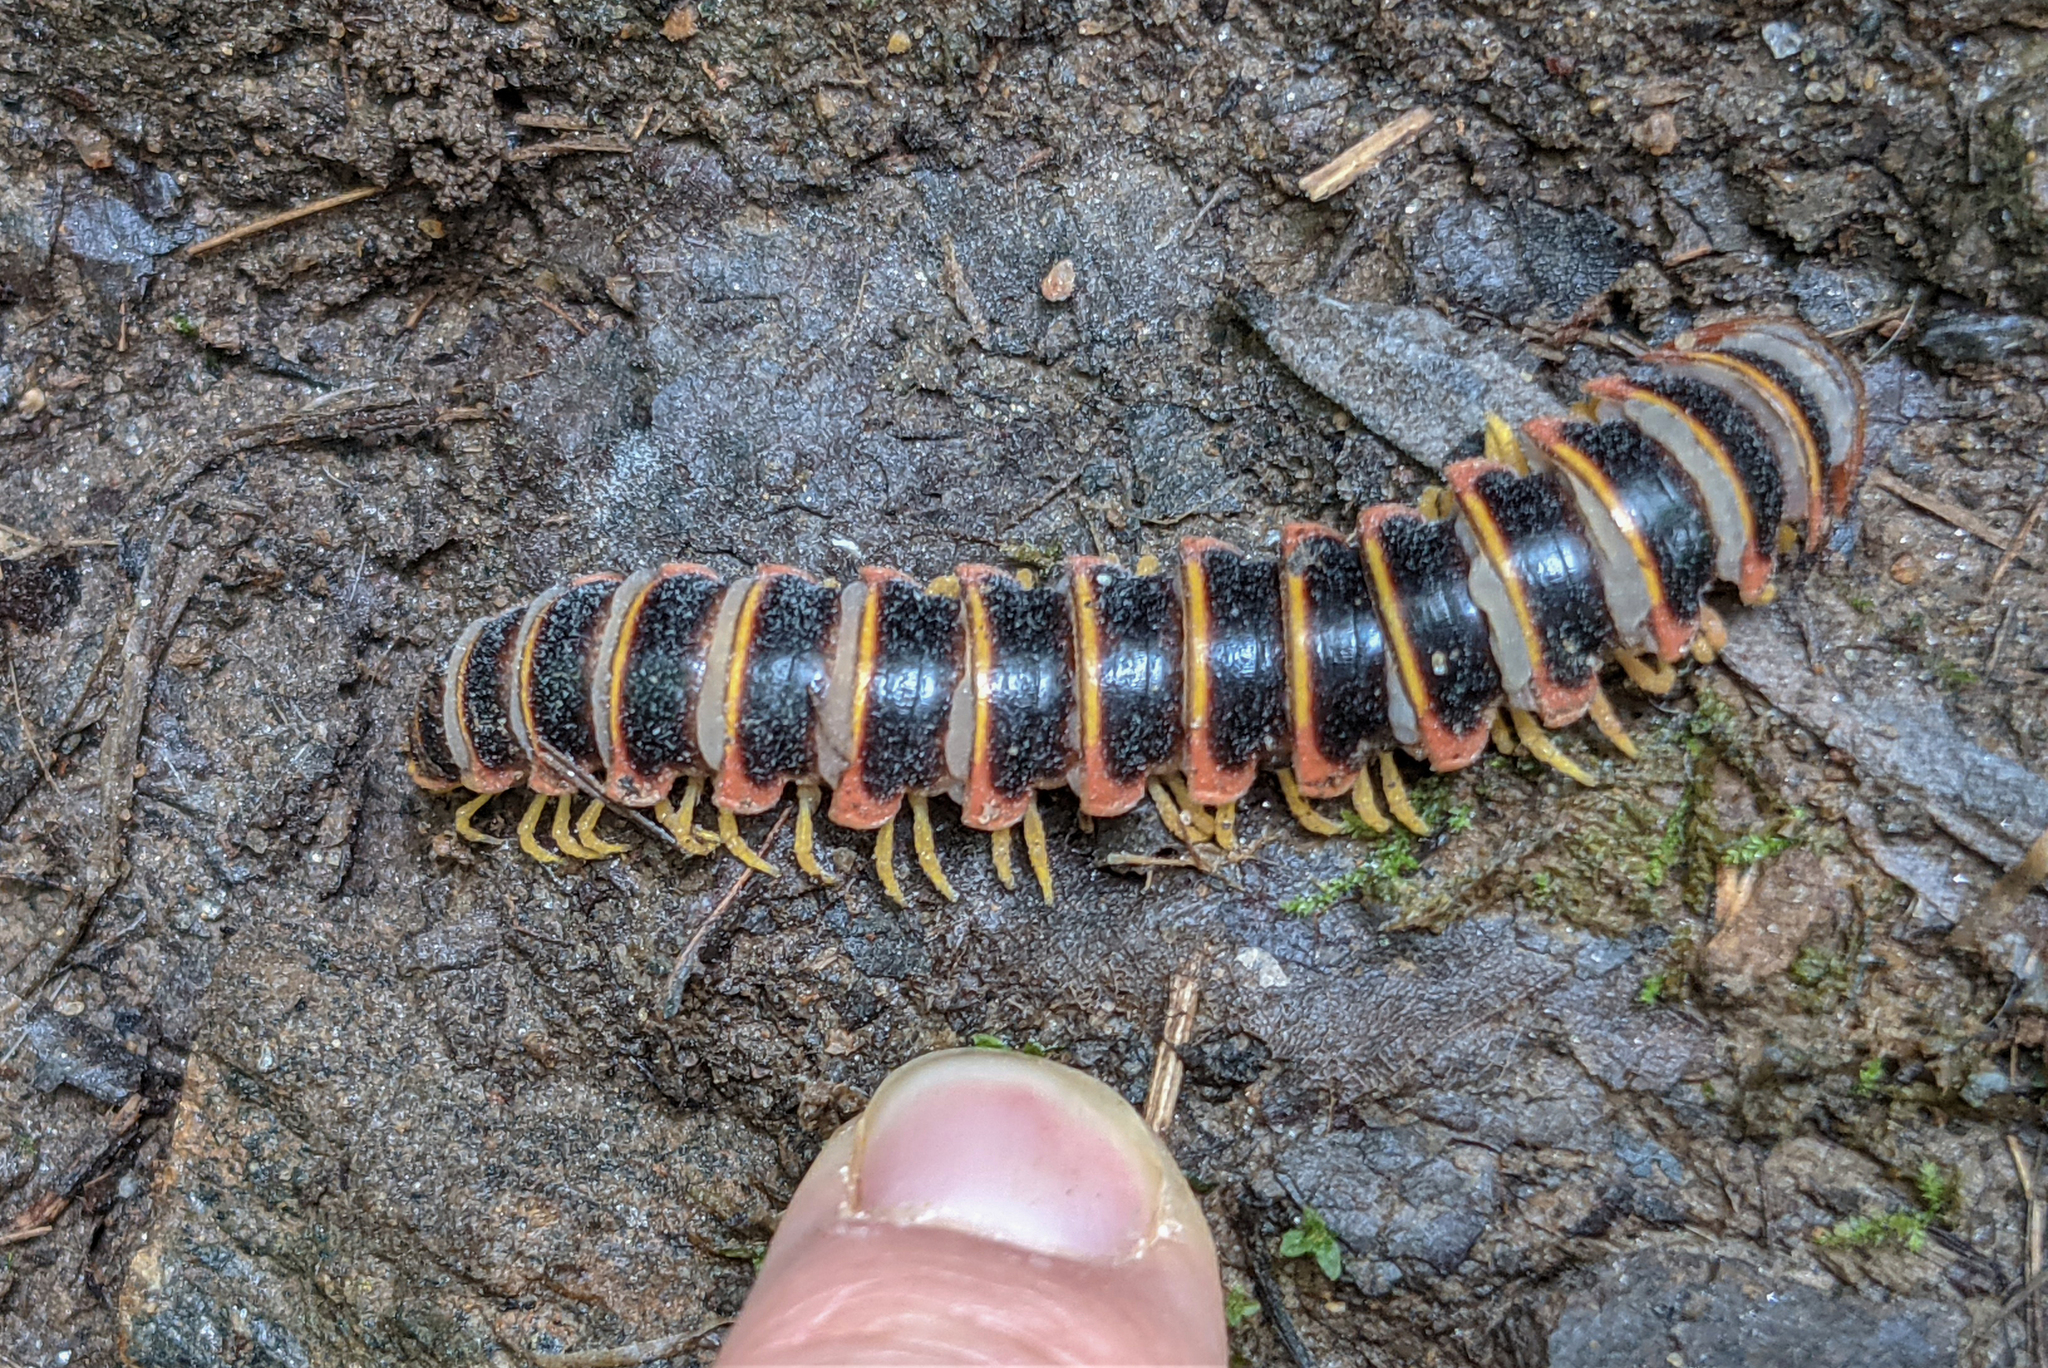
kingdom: Animalia
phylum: Arthropoda
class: Diplopoda
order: Polydesmida
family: Xystodesmidae
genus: Apheloria
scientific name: Apheloria virginiensis
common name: Black-and-gold flat millipede
